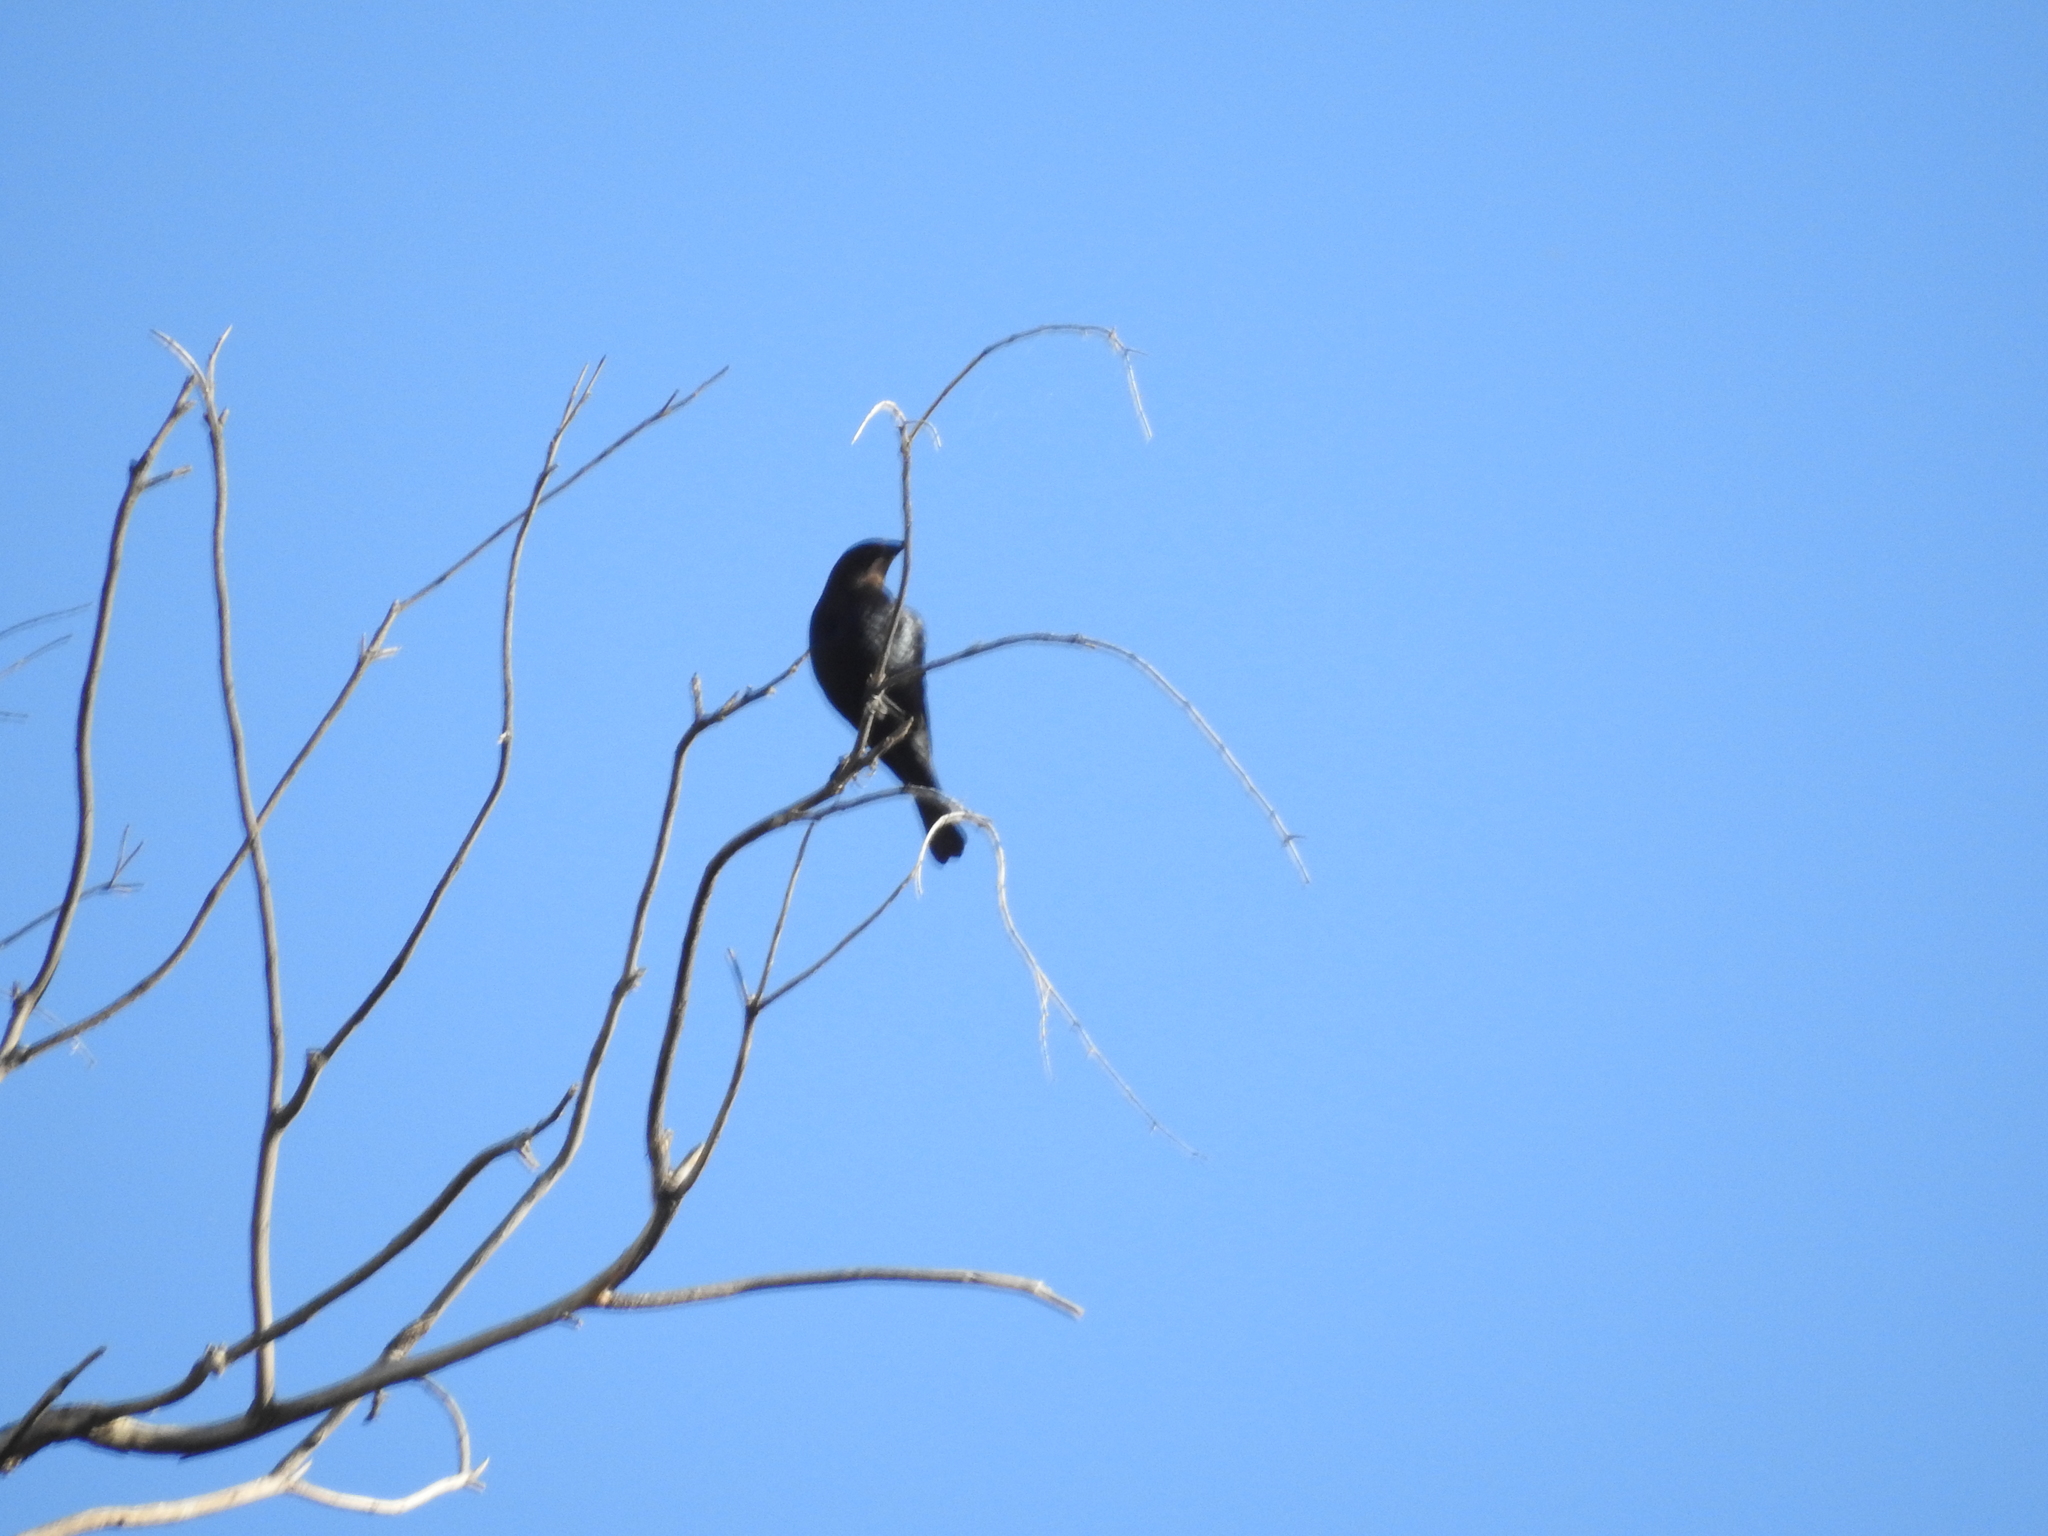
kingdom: Animalia
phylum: Chordata
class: Aves
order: Passeriformes
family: Icteridae
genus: Molothrus
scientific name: Molothrus ater
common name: Brown-headed cowbird
